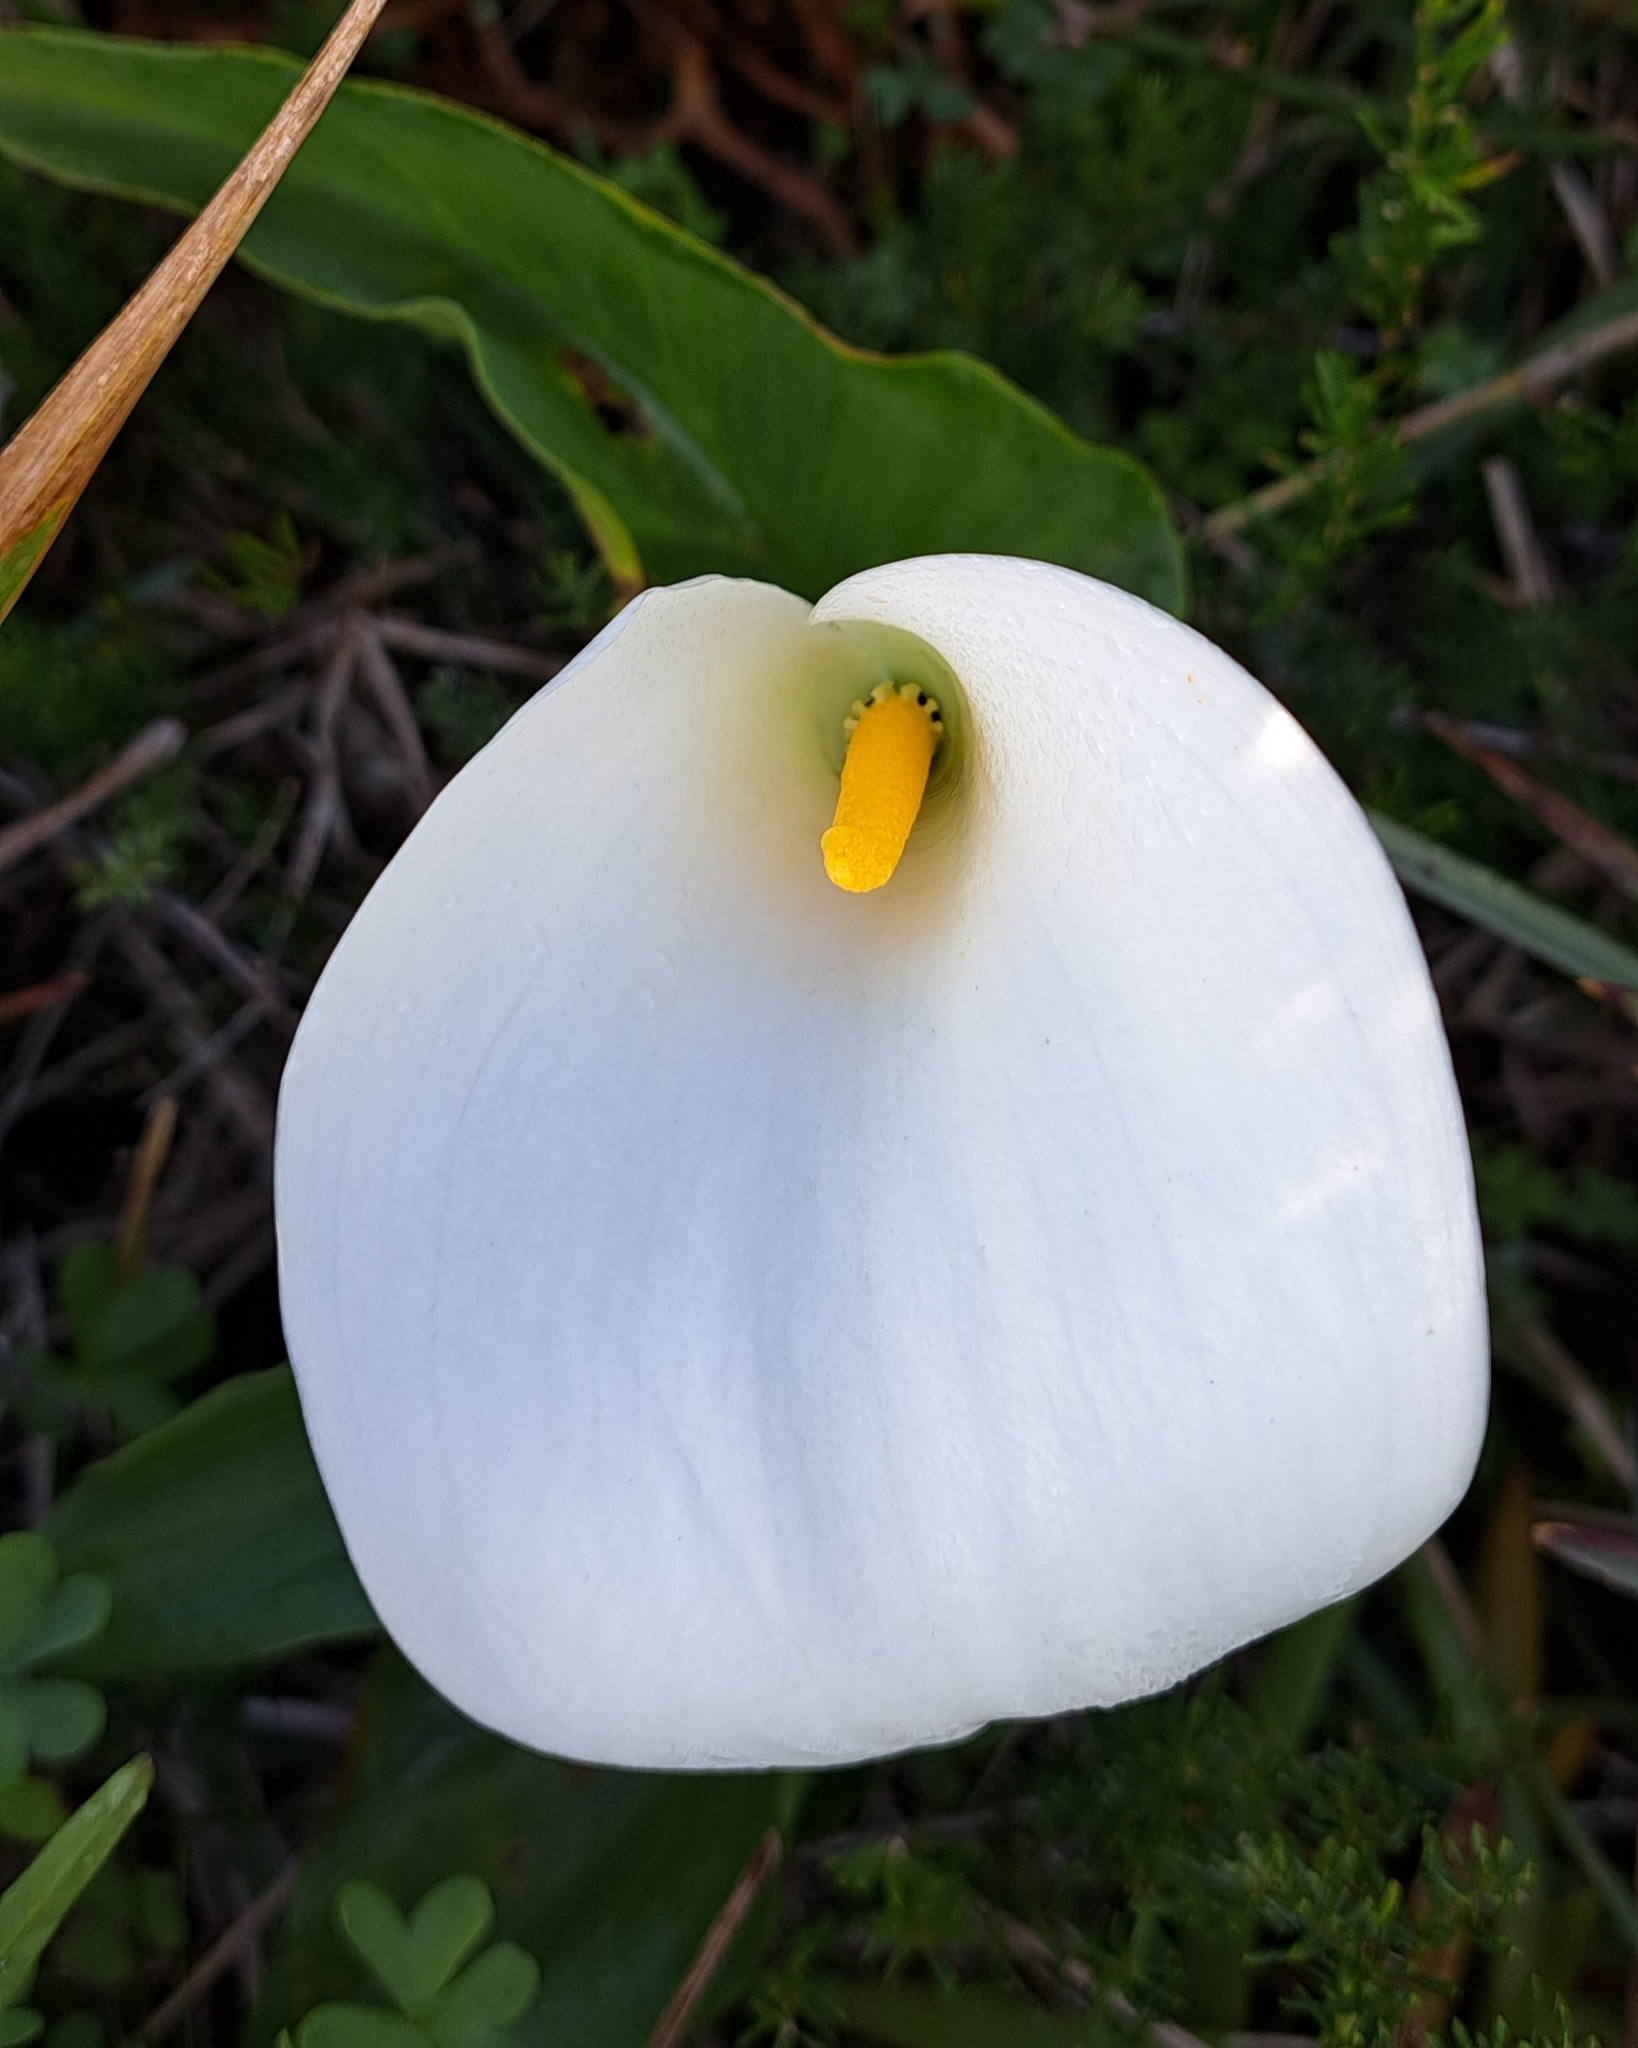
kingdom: Plantae
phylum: Tracheophyta
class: Liliopsida
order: Alismatales
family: Araceae
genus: Zantedeschia
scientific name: Zantedeschia aethiopica
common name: Altar-lily
